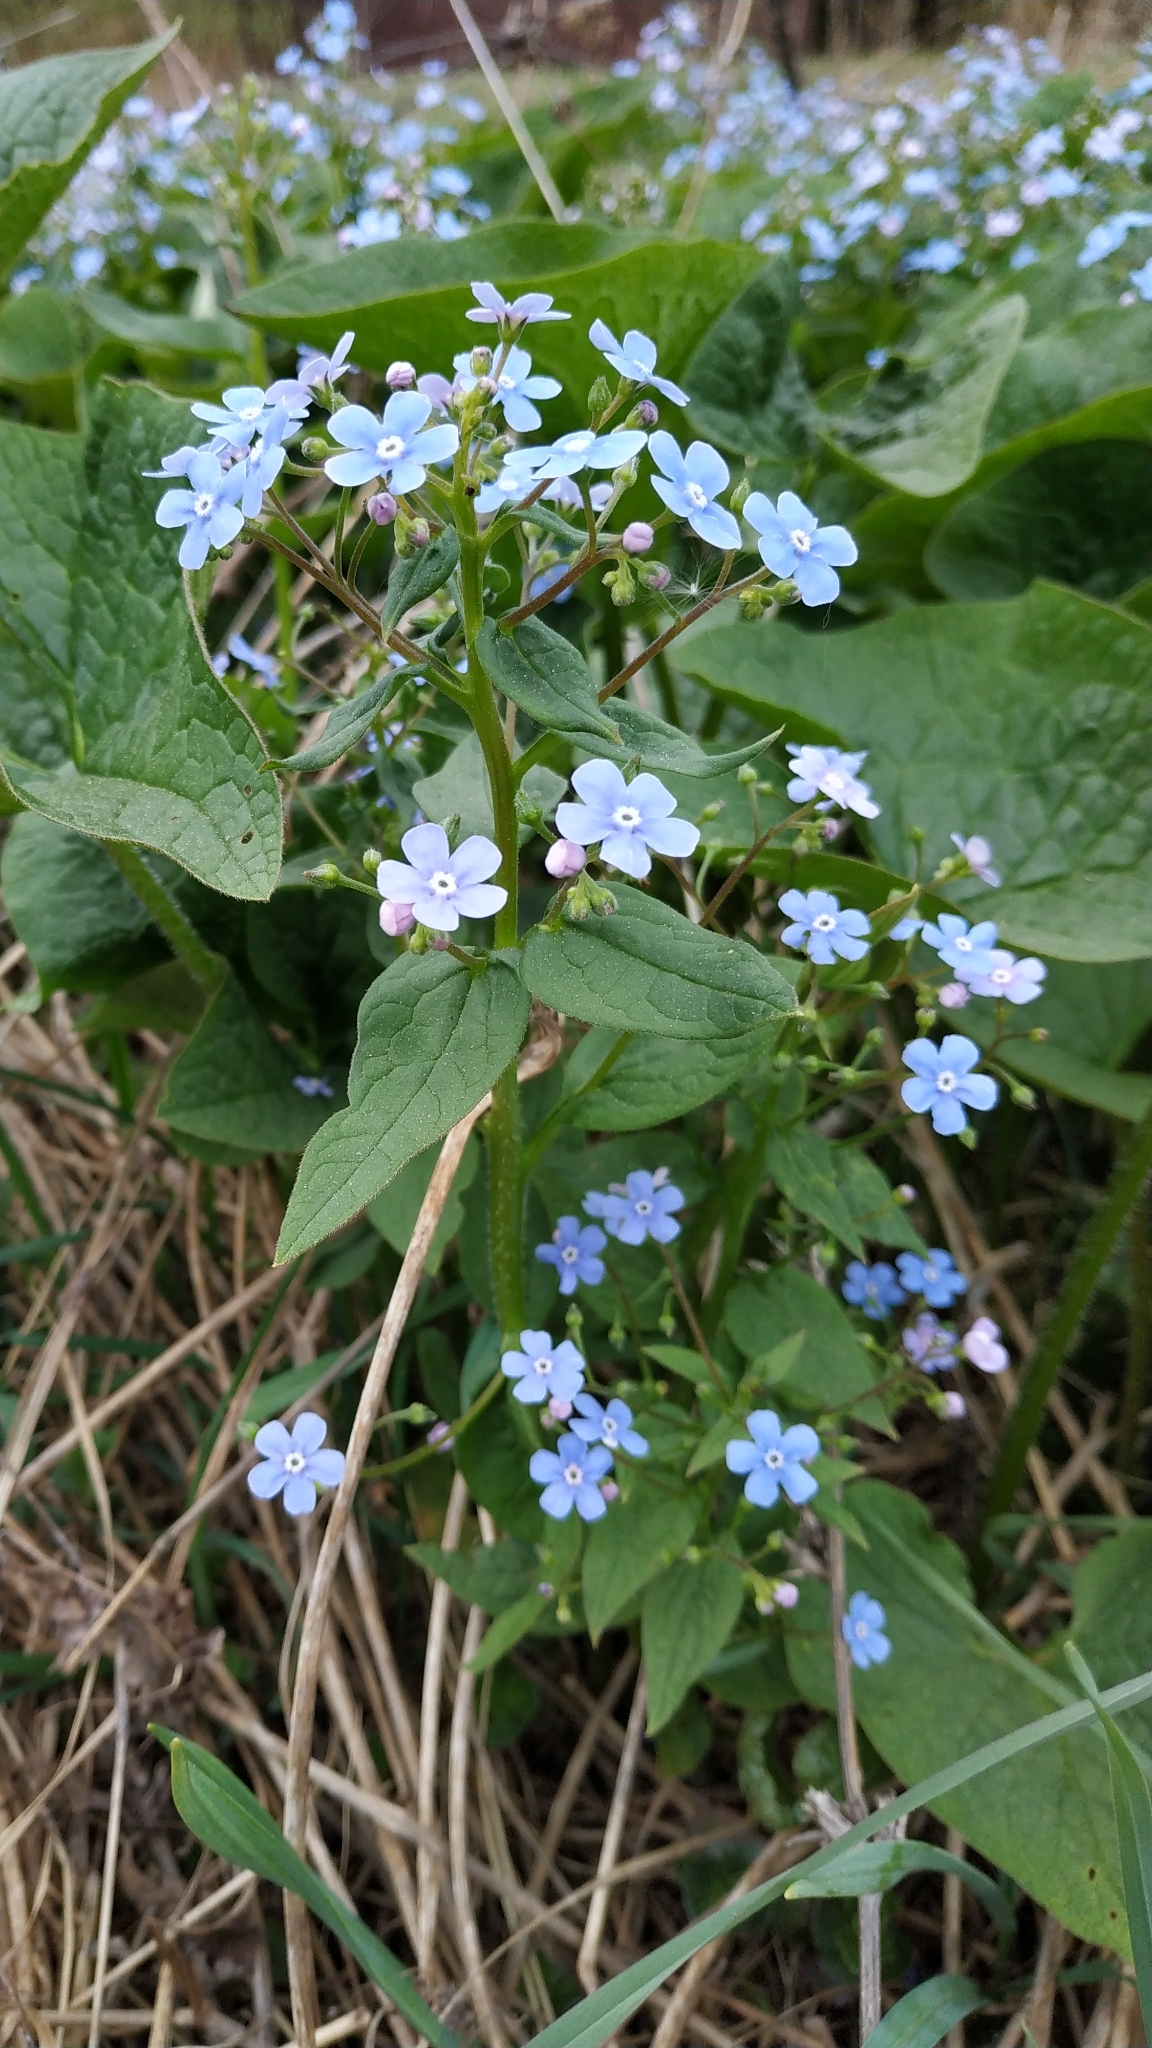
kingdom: Plantae
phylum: Tracheophyta
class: Magnoliopsida
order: Boraginales
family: Boraginaceae
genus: Brunnera
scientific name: Brunnera sibirica
